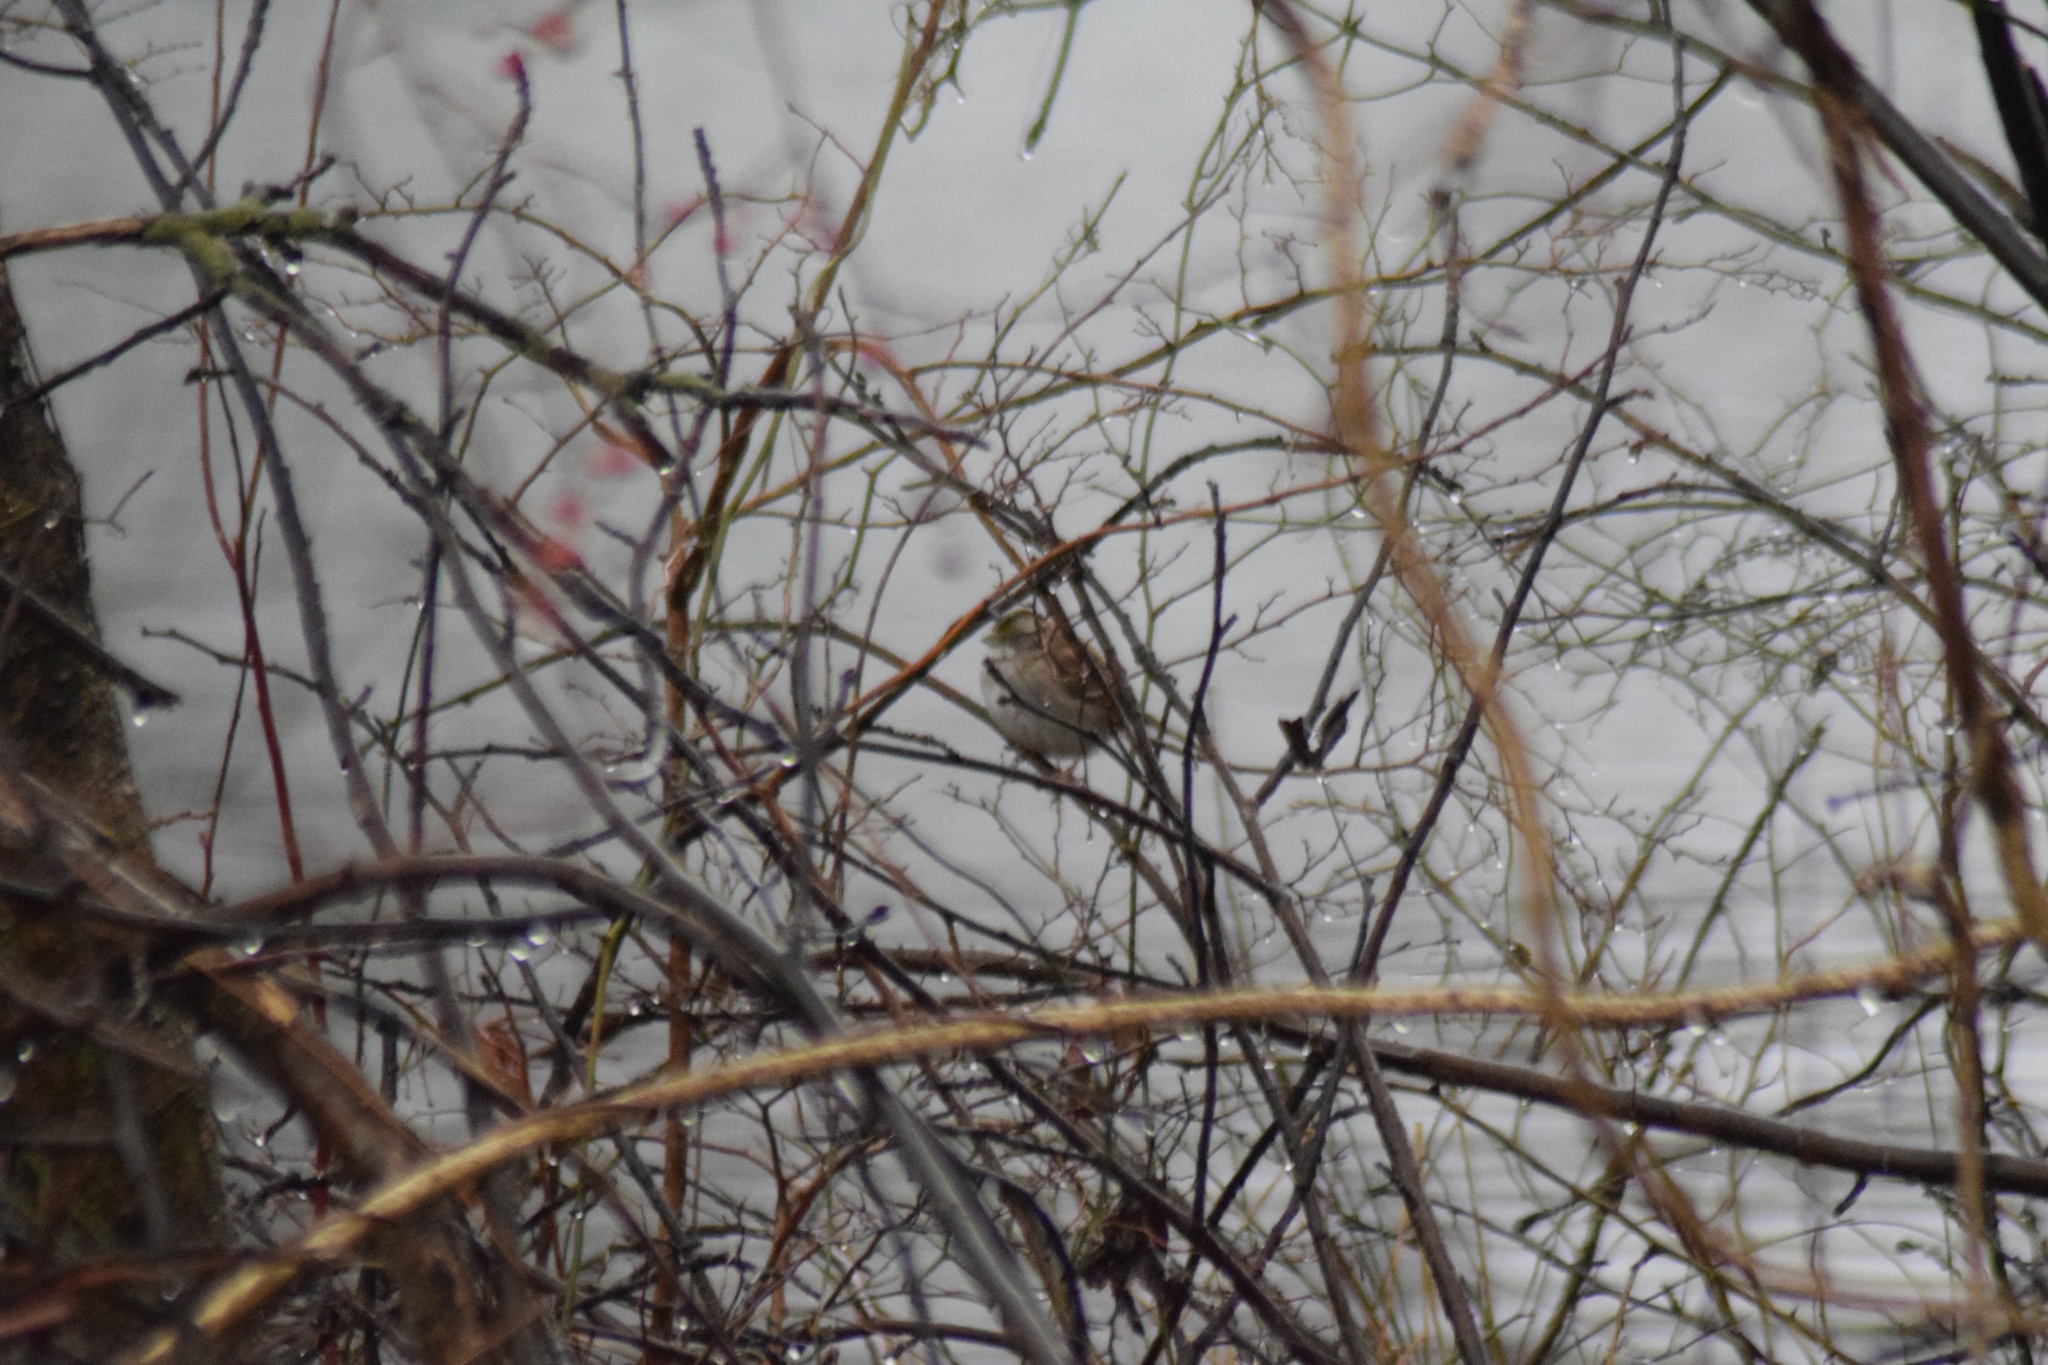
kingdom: Animalia
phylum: Chordata
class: Aves
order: Passeriformes
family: Passerellidae
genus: Zonotrichia
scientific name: Zonotrichia albicollis
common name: White-throated sparrow
